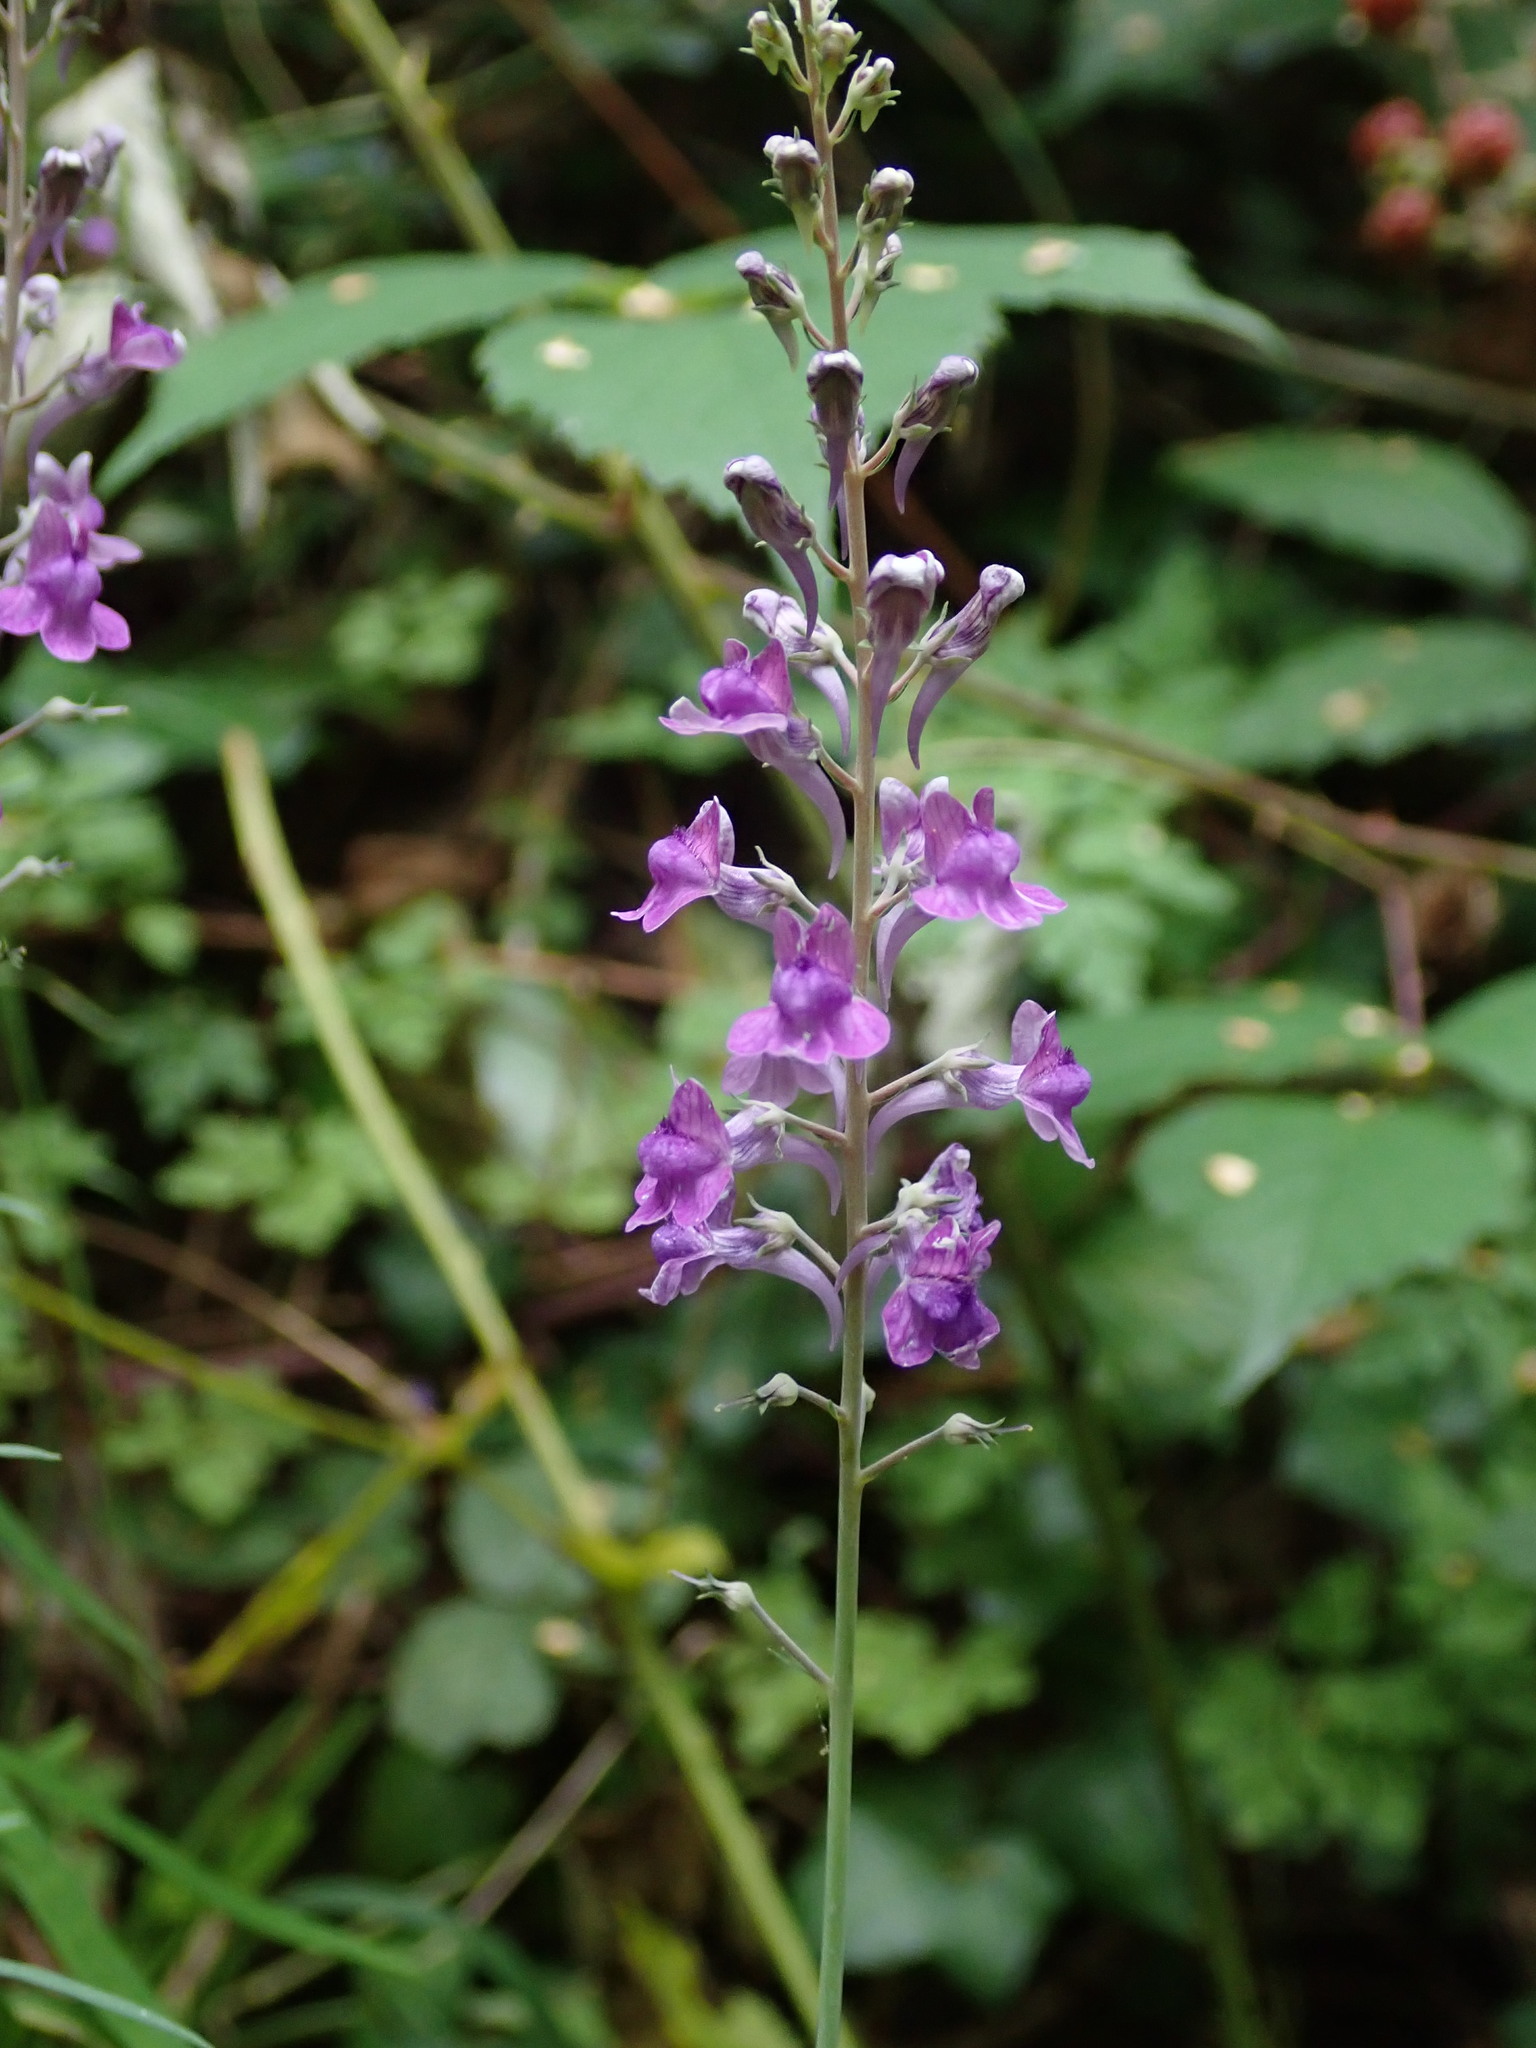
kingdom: Plantae
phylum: Tracheophyta
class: Magnoliopsida
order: Lamiales
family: Plantaginaceae
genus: Linaria
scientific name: Linaria purpurea
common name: Purple toadflax
